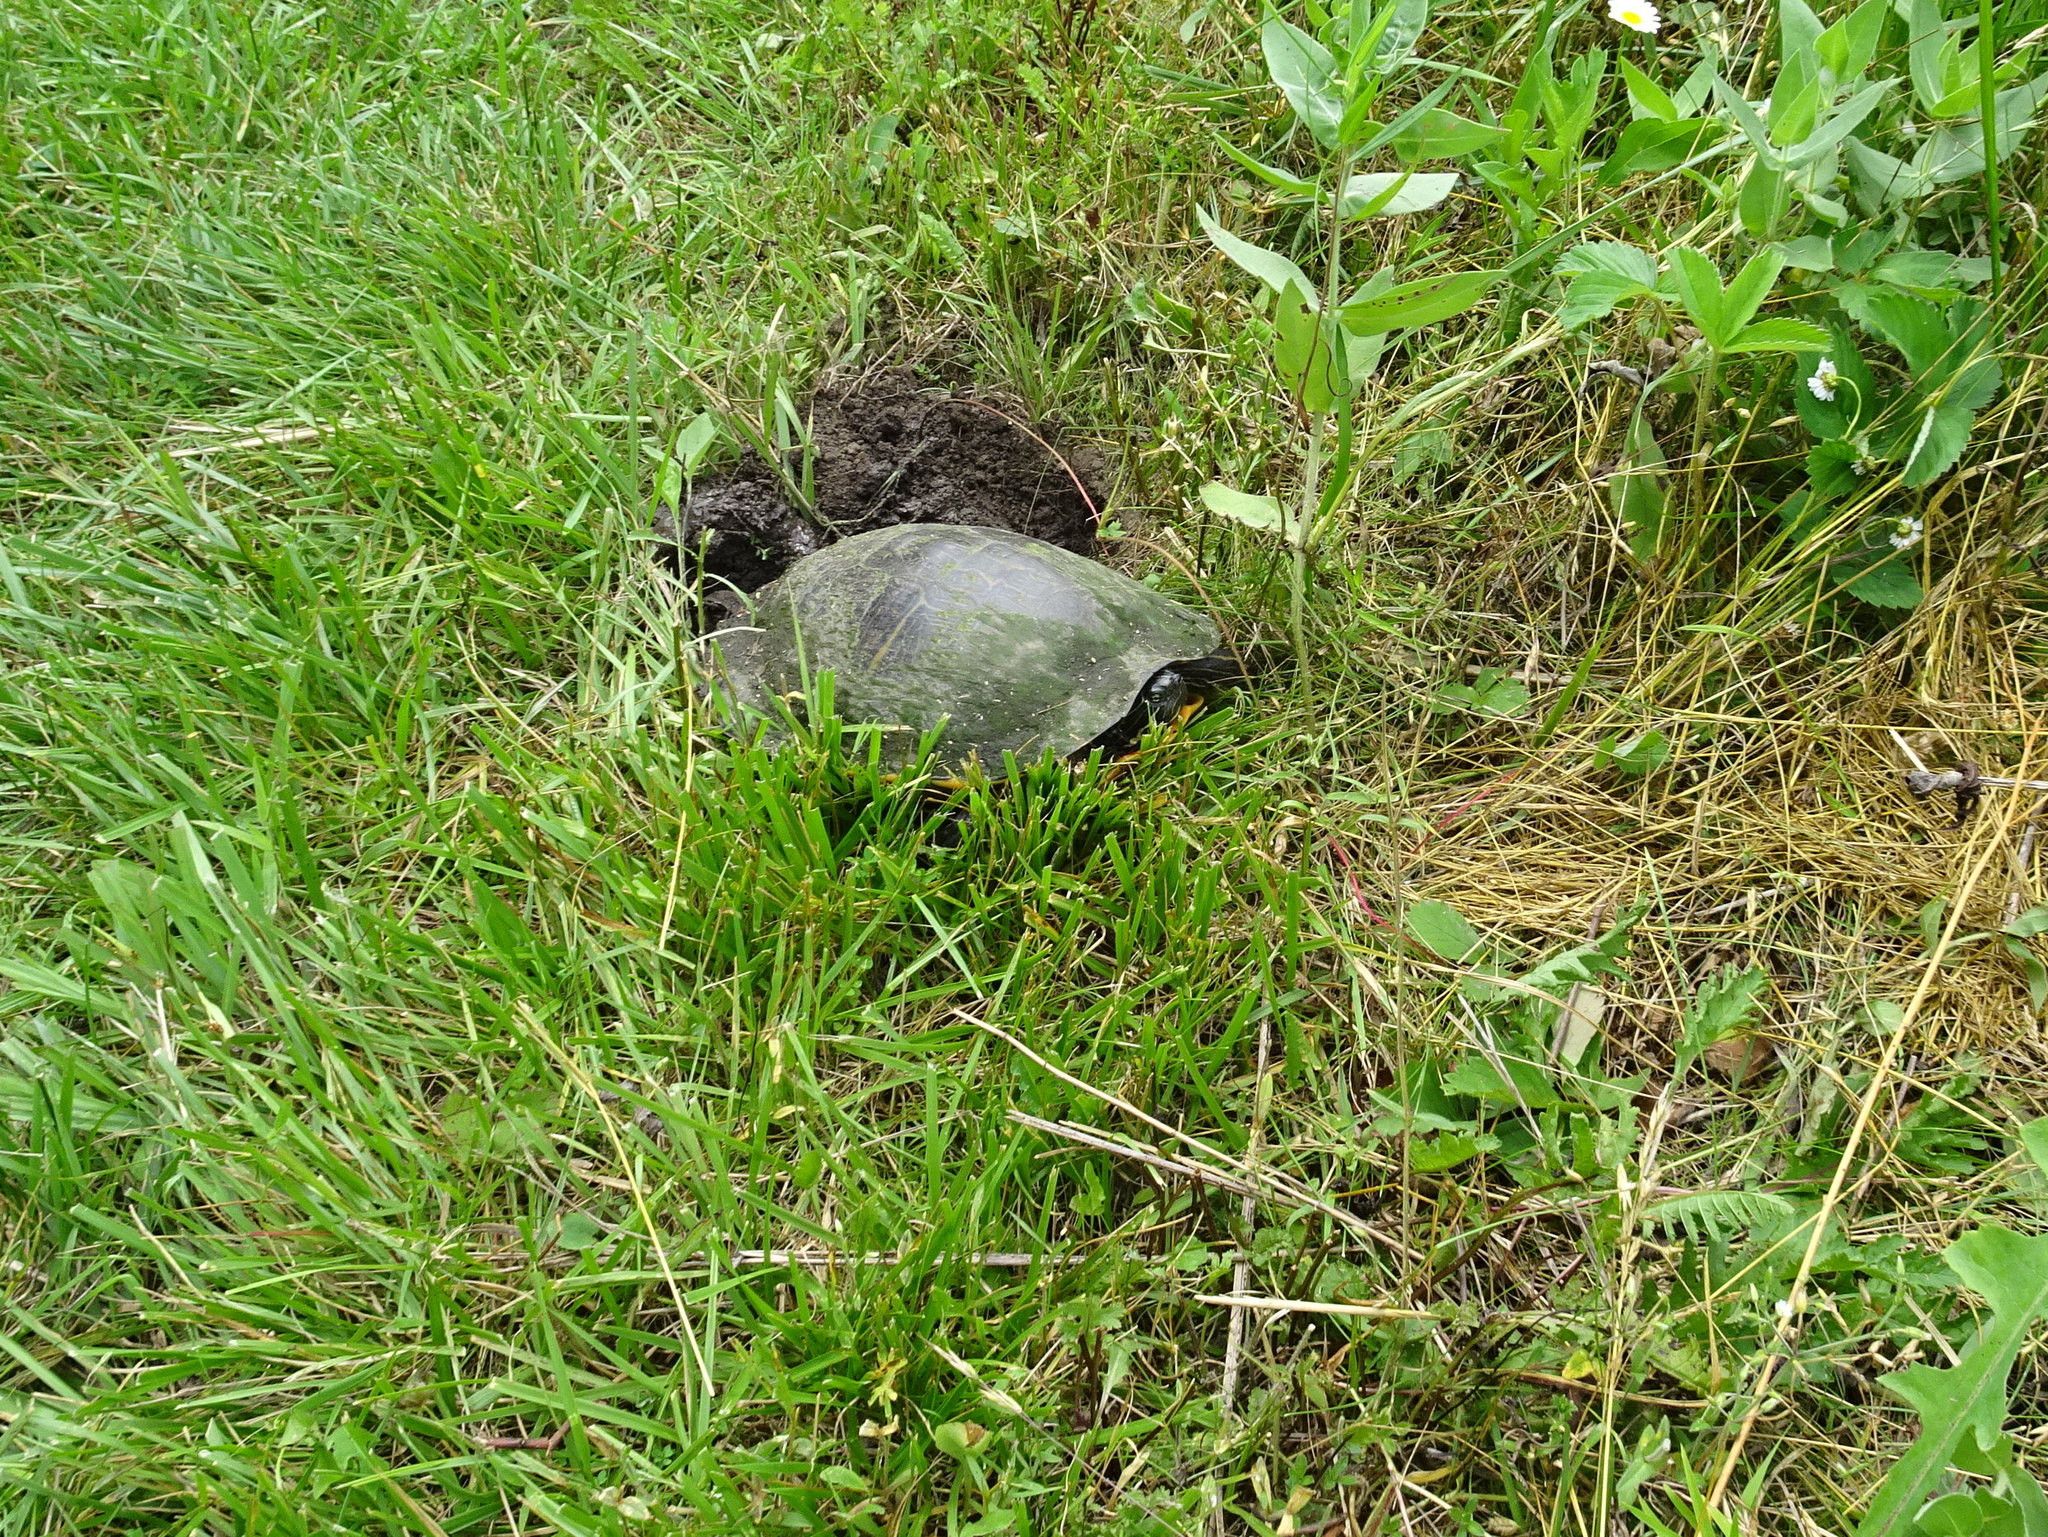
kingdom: Animalia
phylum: Chordata
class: Testudines
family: Emydidae
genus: Pseudemys
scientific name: Pseudemys concinna
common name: Eastern river cooter
